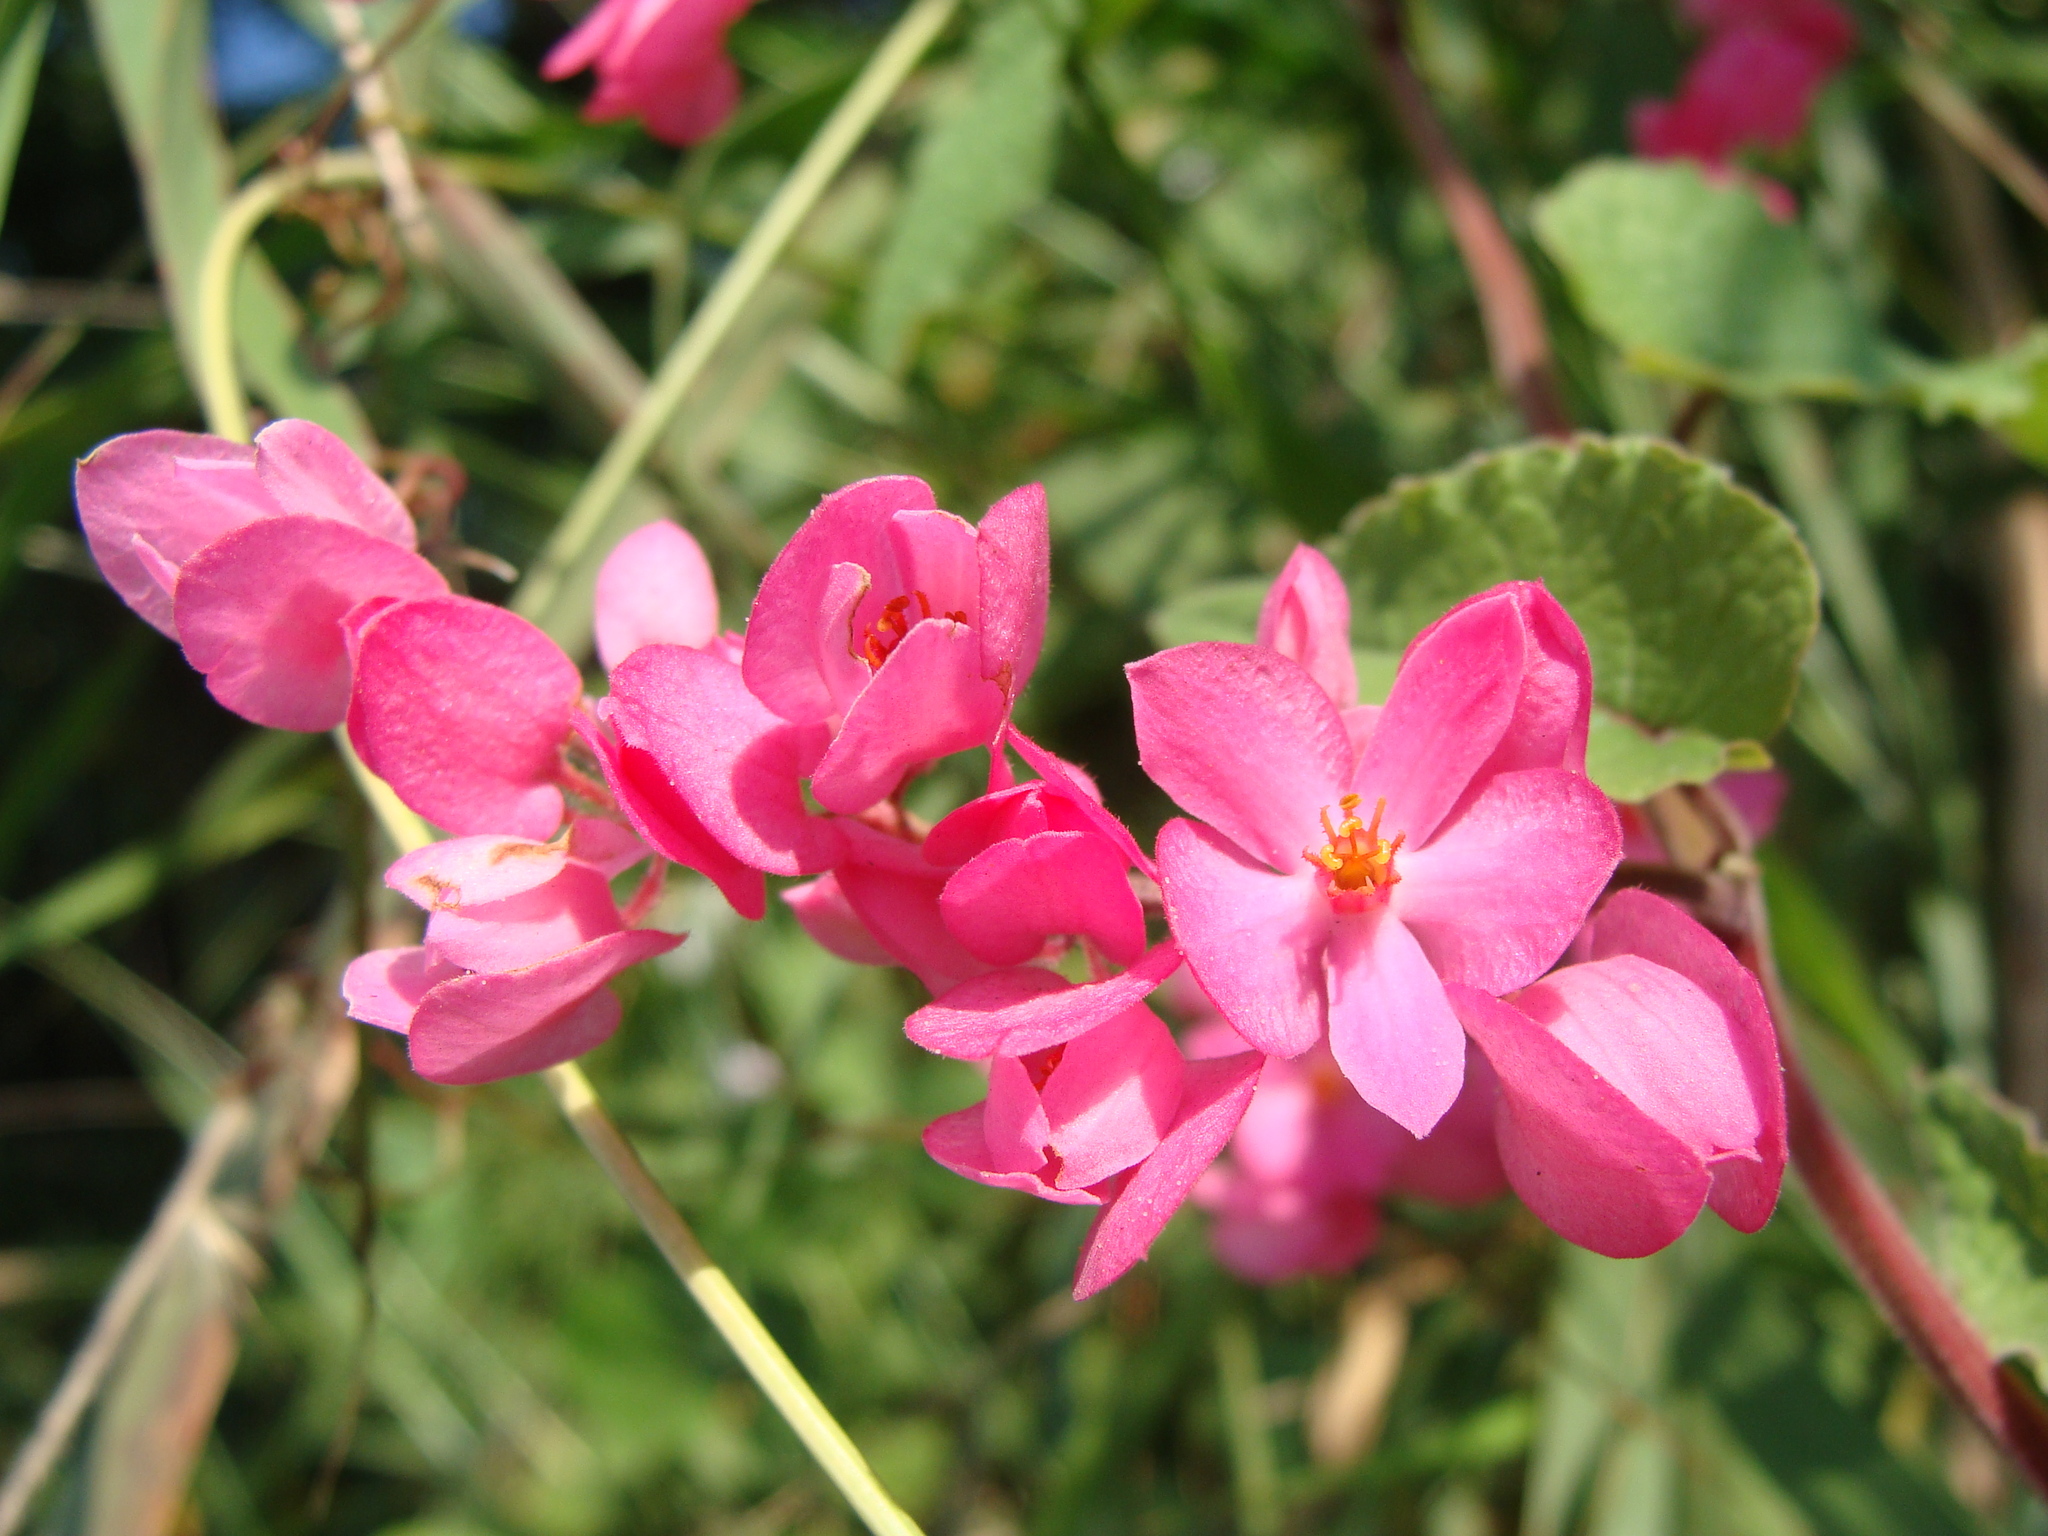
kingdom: Plantae
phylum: Tracheophyta
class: Magnoliopsida
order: Caryophyllales
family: Polygonaceae
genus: Antigonon
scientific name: Antigonon leptopus
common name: Coral vine
